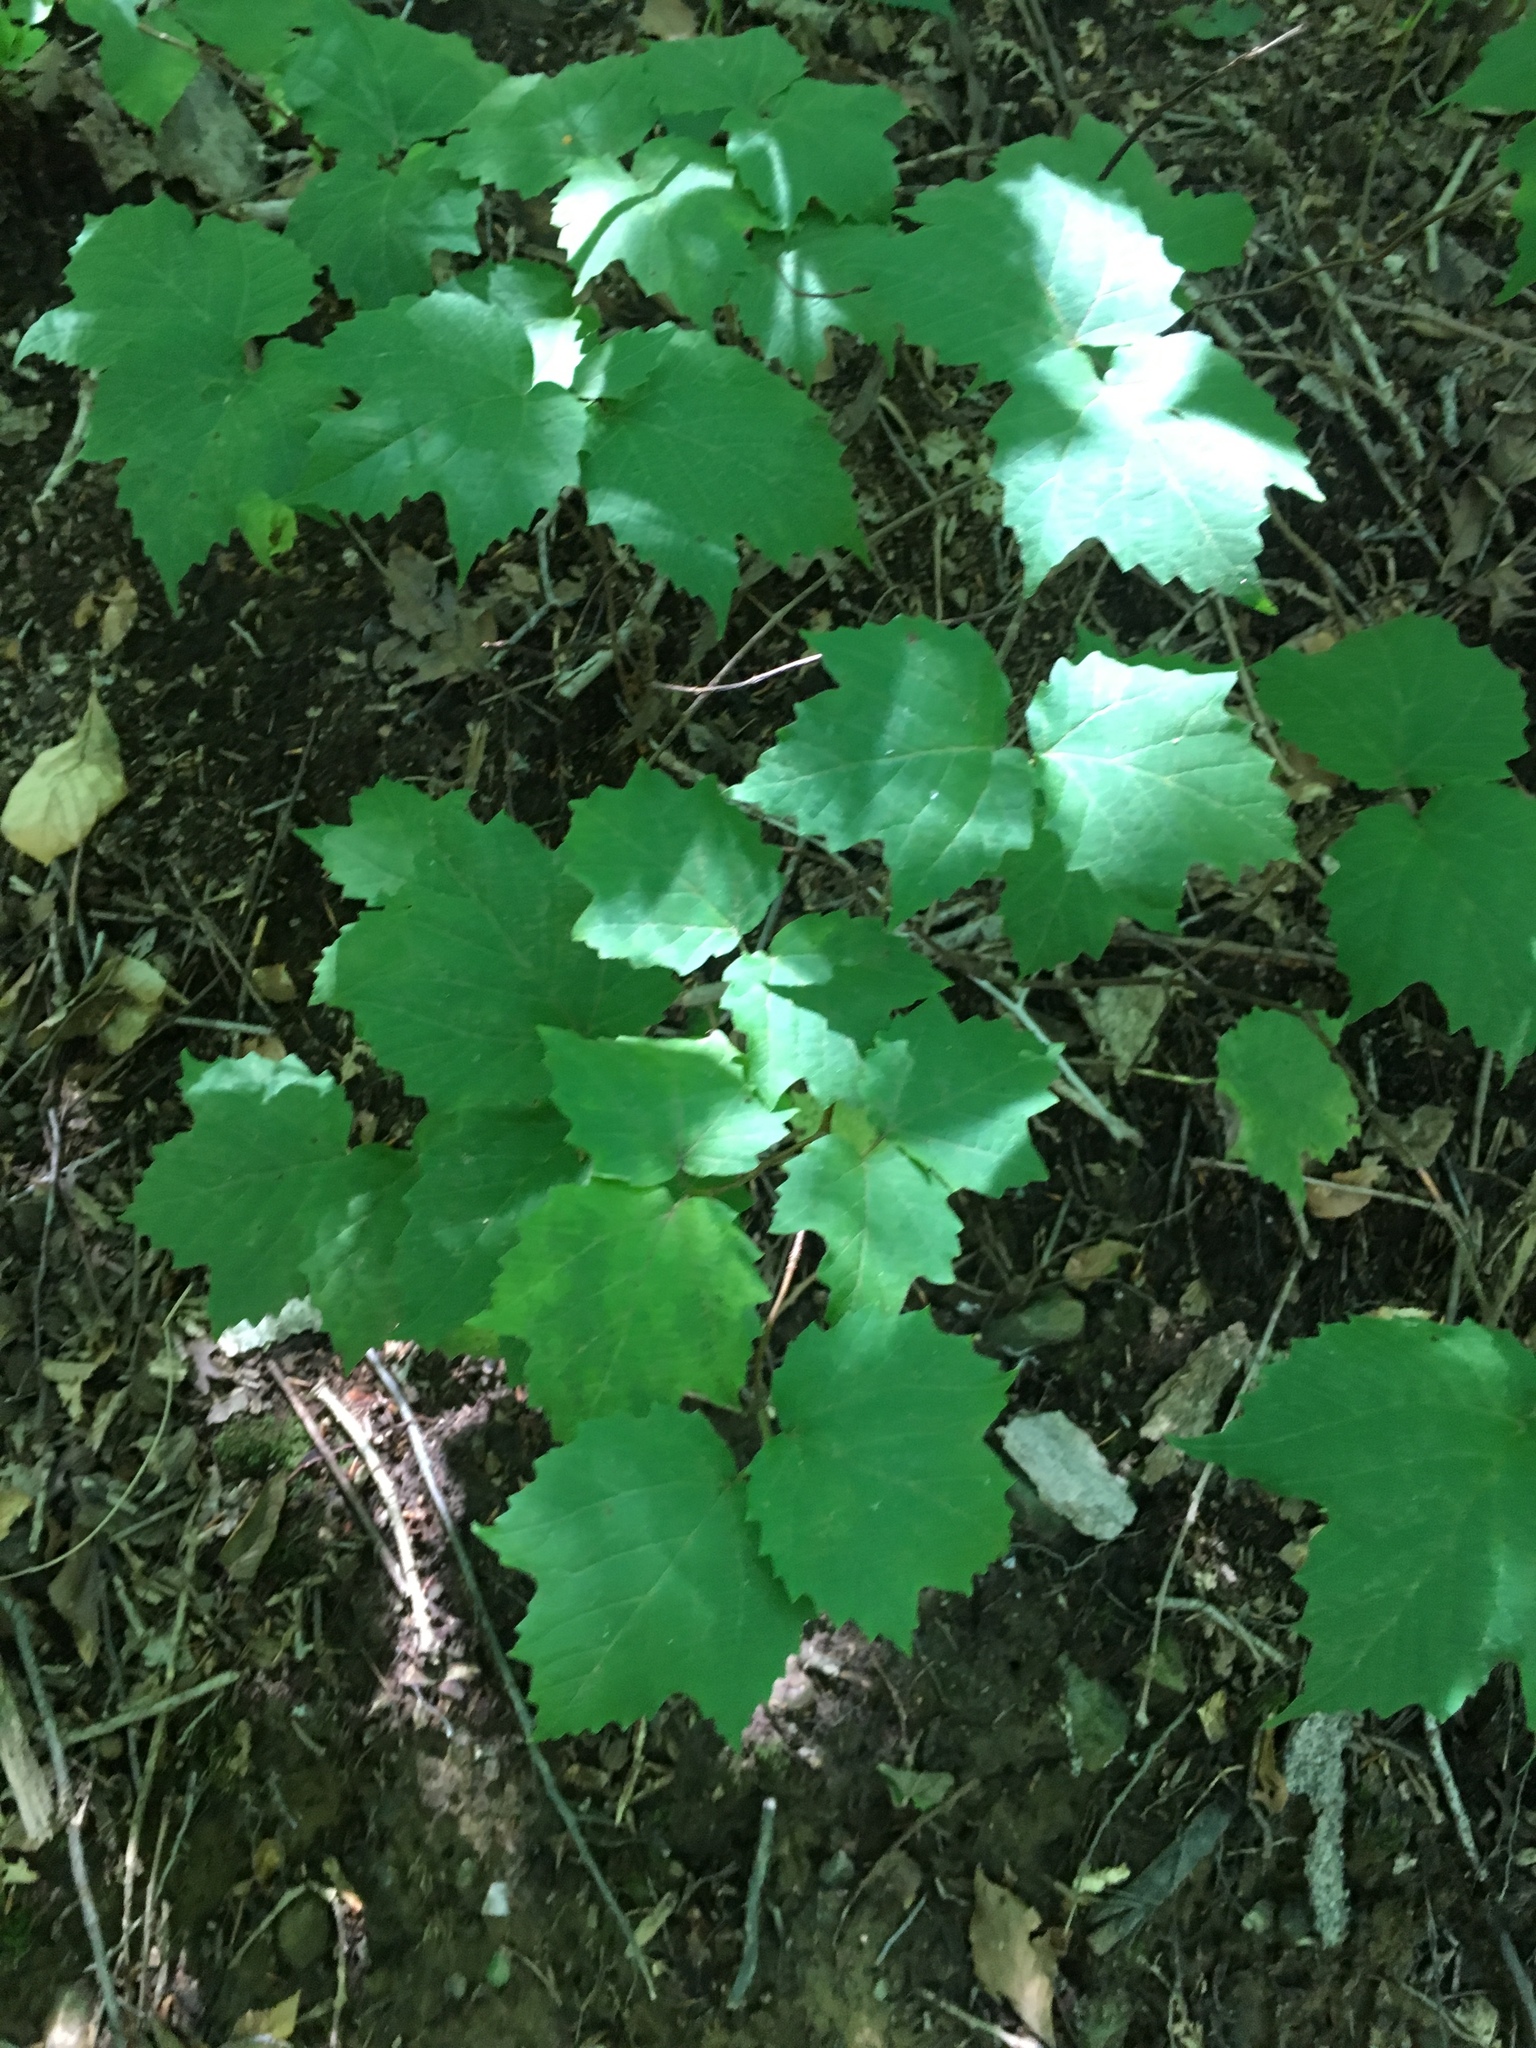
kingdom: Plantae
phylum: Tracheophyta
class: Magnoliopsida
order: Dipsacales
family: Viburnaceae
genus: Viburnum
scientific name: Viburnum acerifolium
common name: Dockmackie
